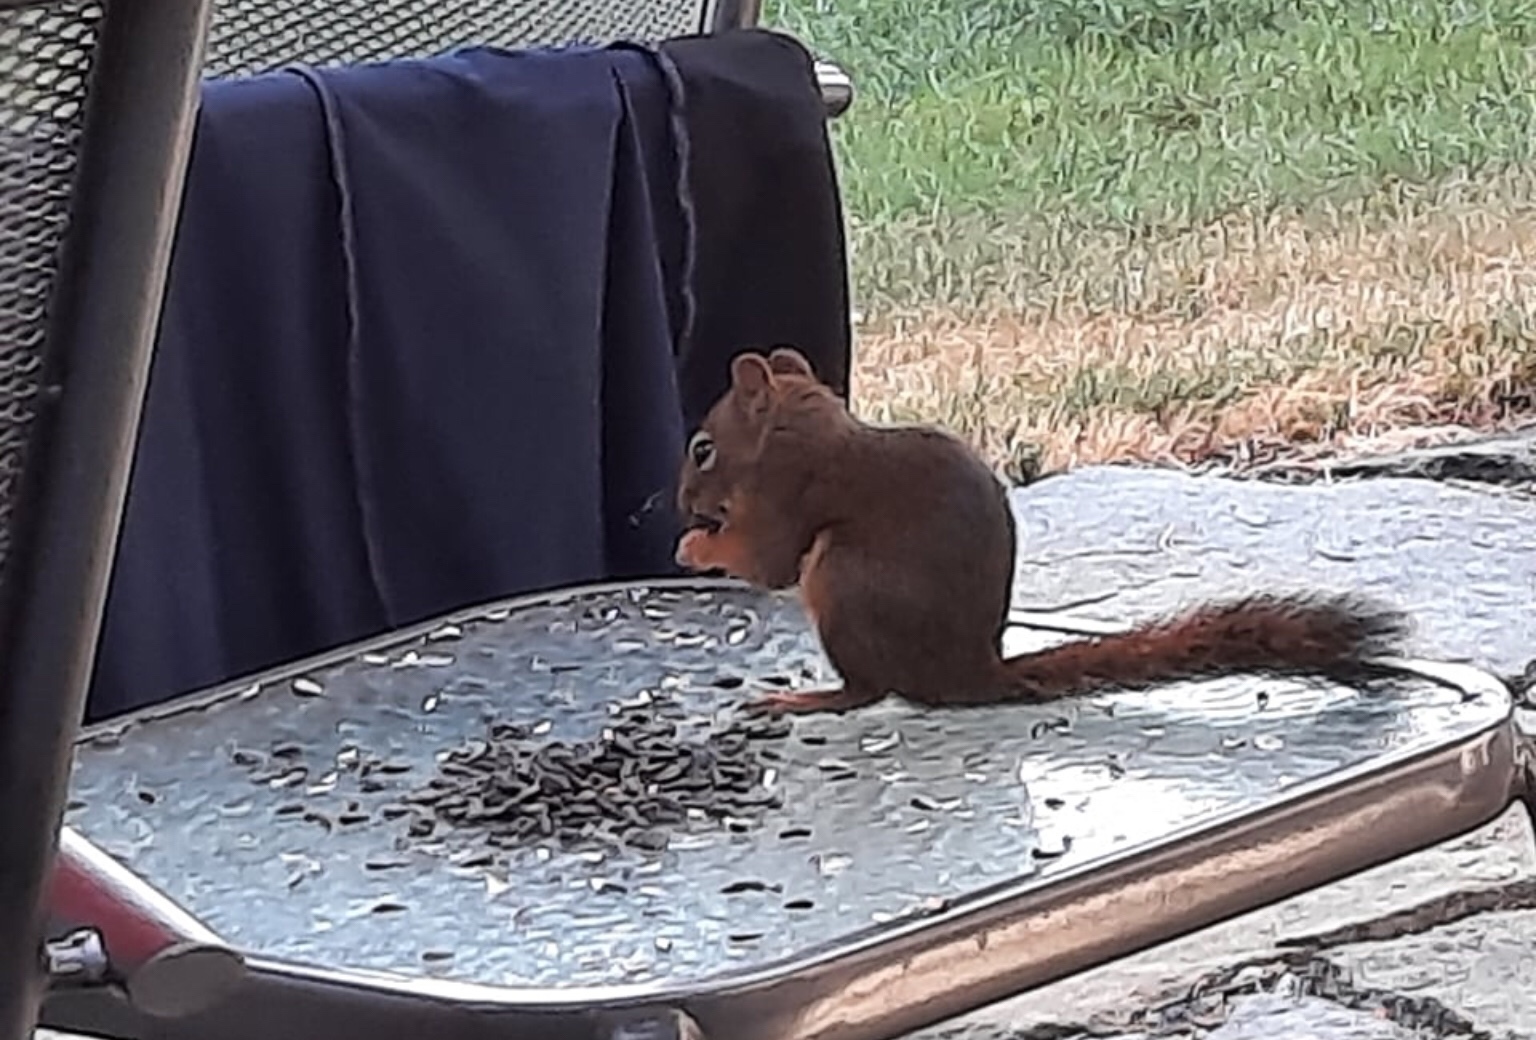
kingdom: Animalia
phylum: Chordata
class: Mammalia
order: Rodentia
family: Sciuridae
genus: Tamiasciurus
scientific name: Tamiasciurus hudsonicus
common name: Red squirrel
